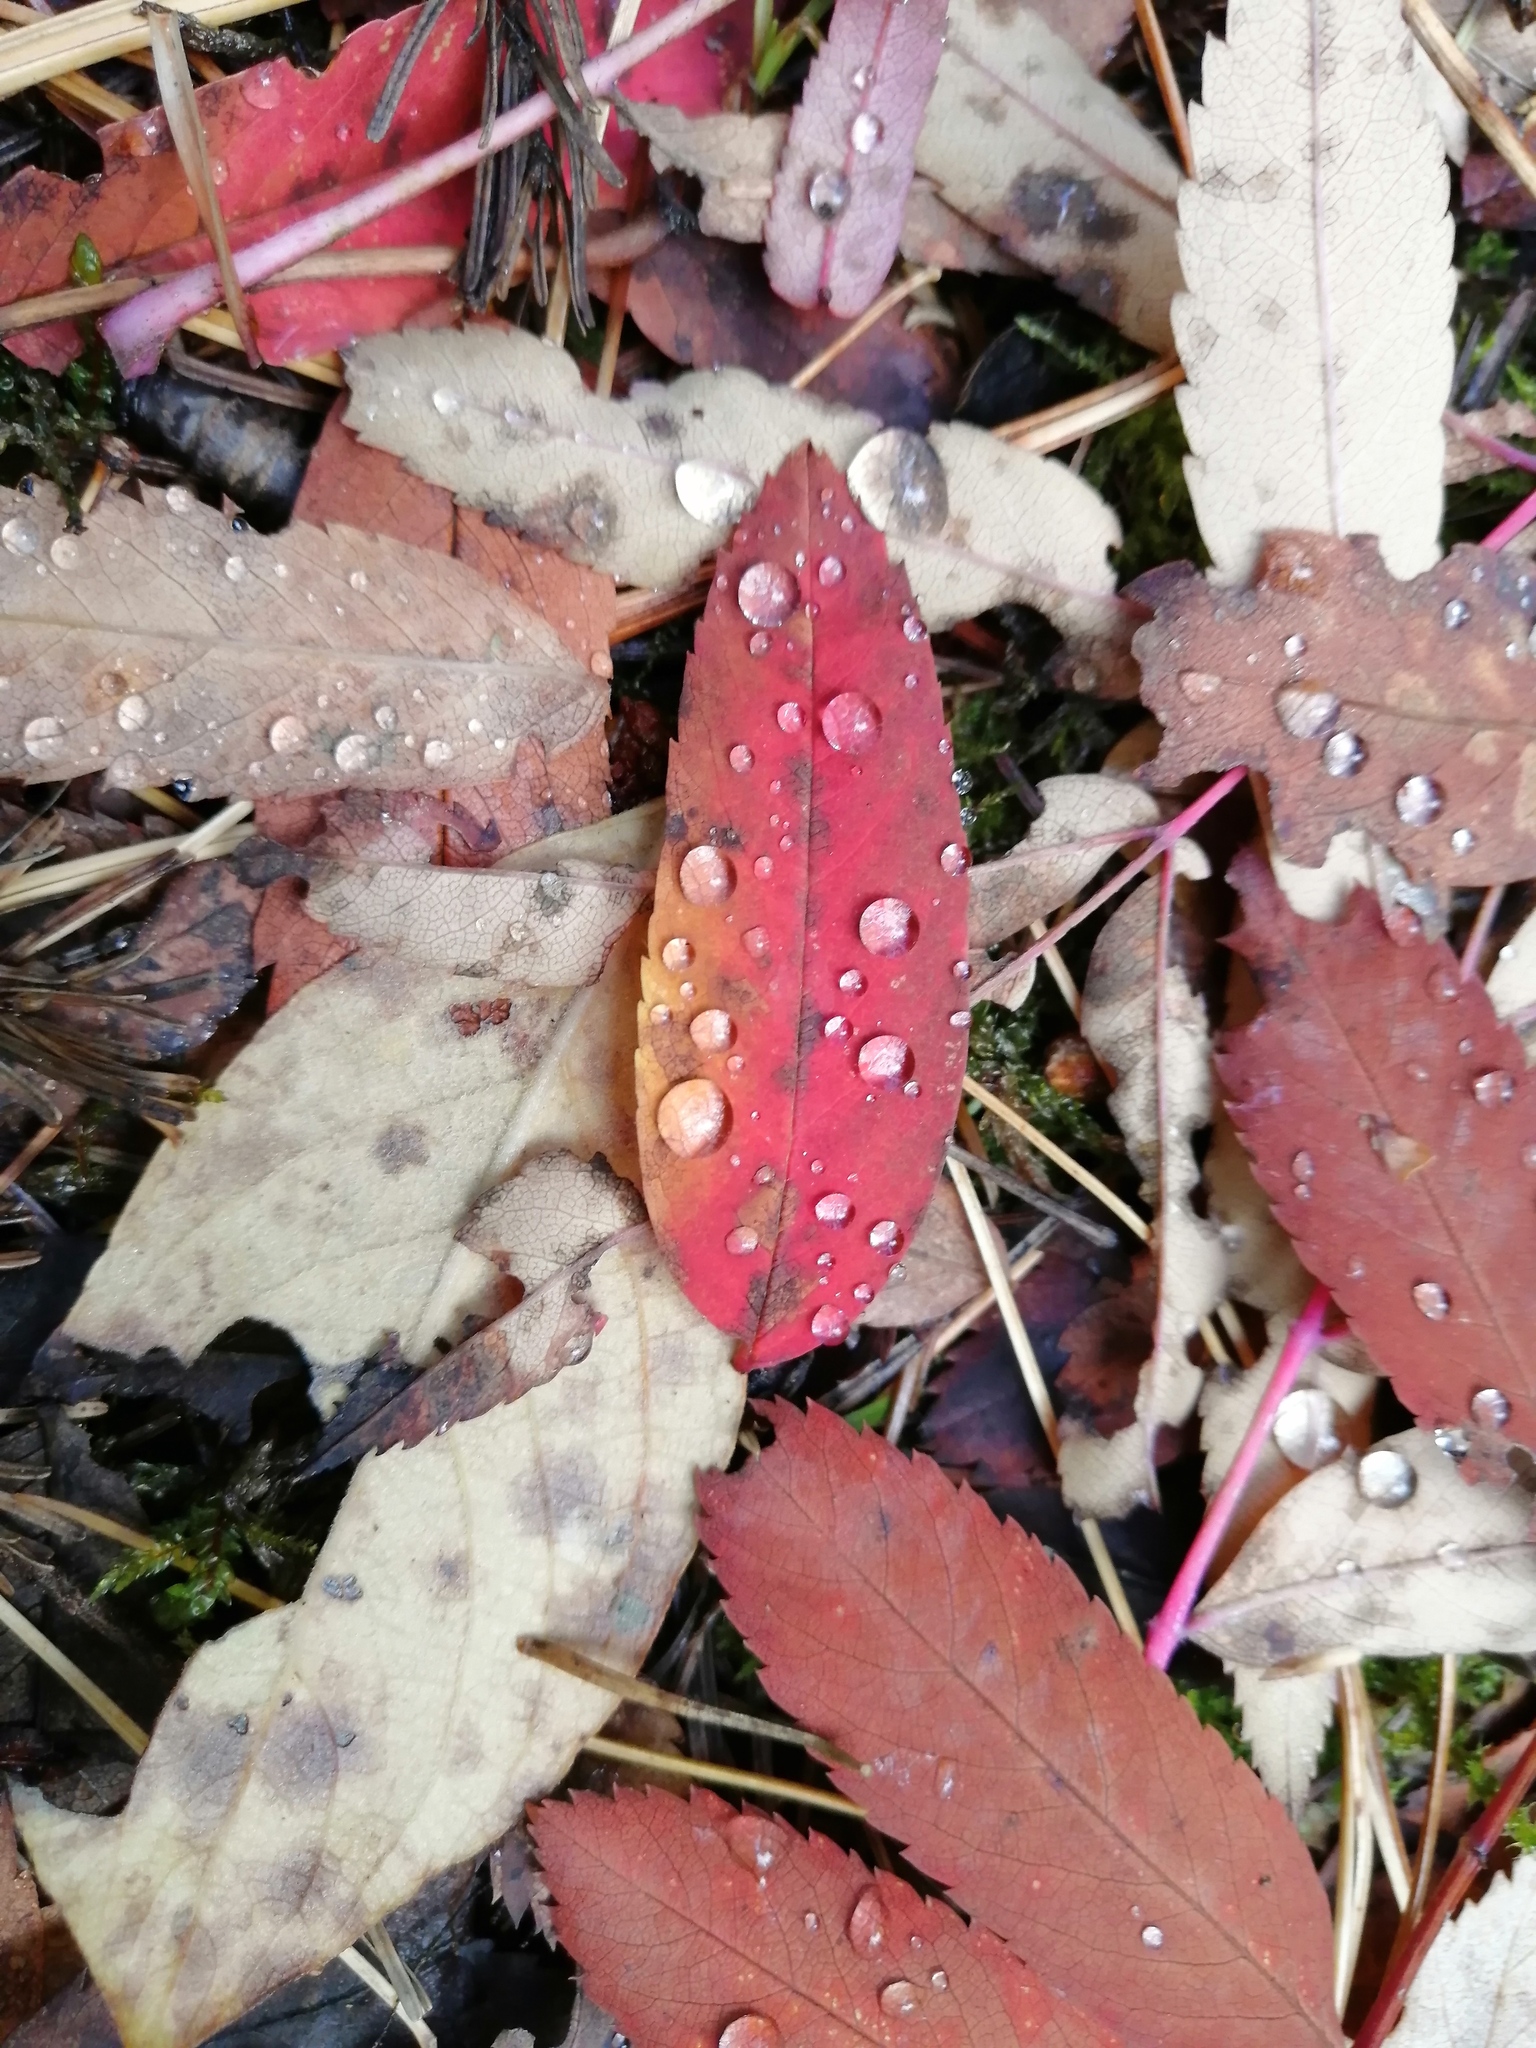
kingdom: Plantae
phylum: Tracheophyta
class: Magnoliopsida
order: Rosales
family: Rosaceae
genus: Sorbus
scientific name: Sorbus aucuparia
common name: Rowan
